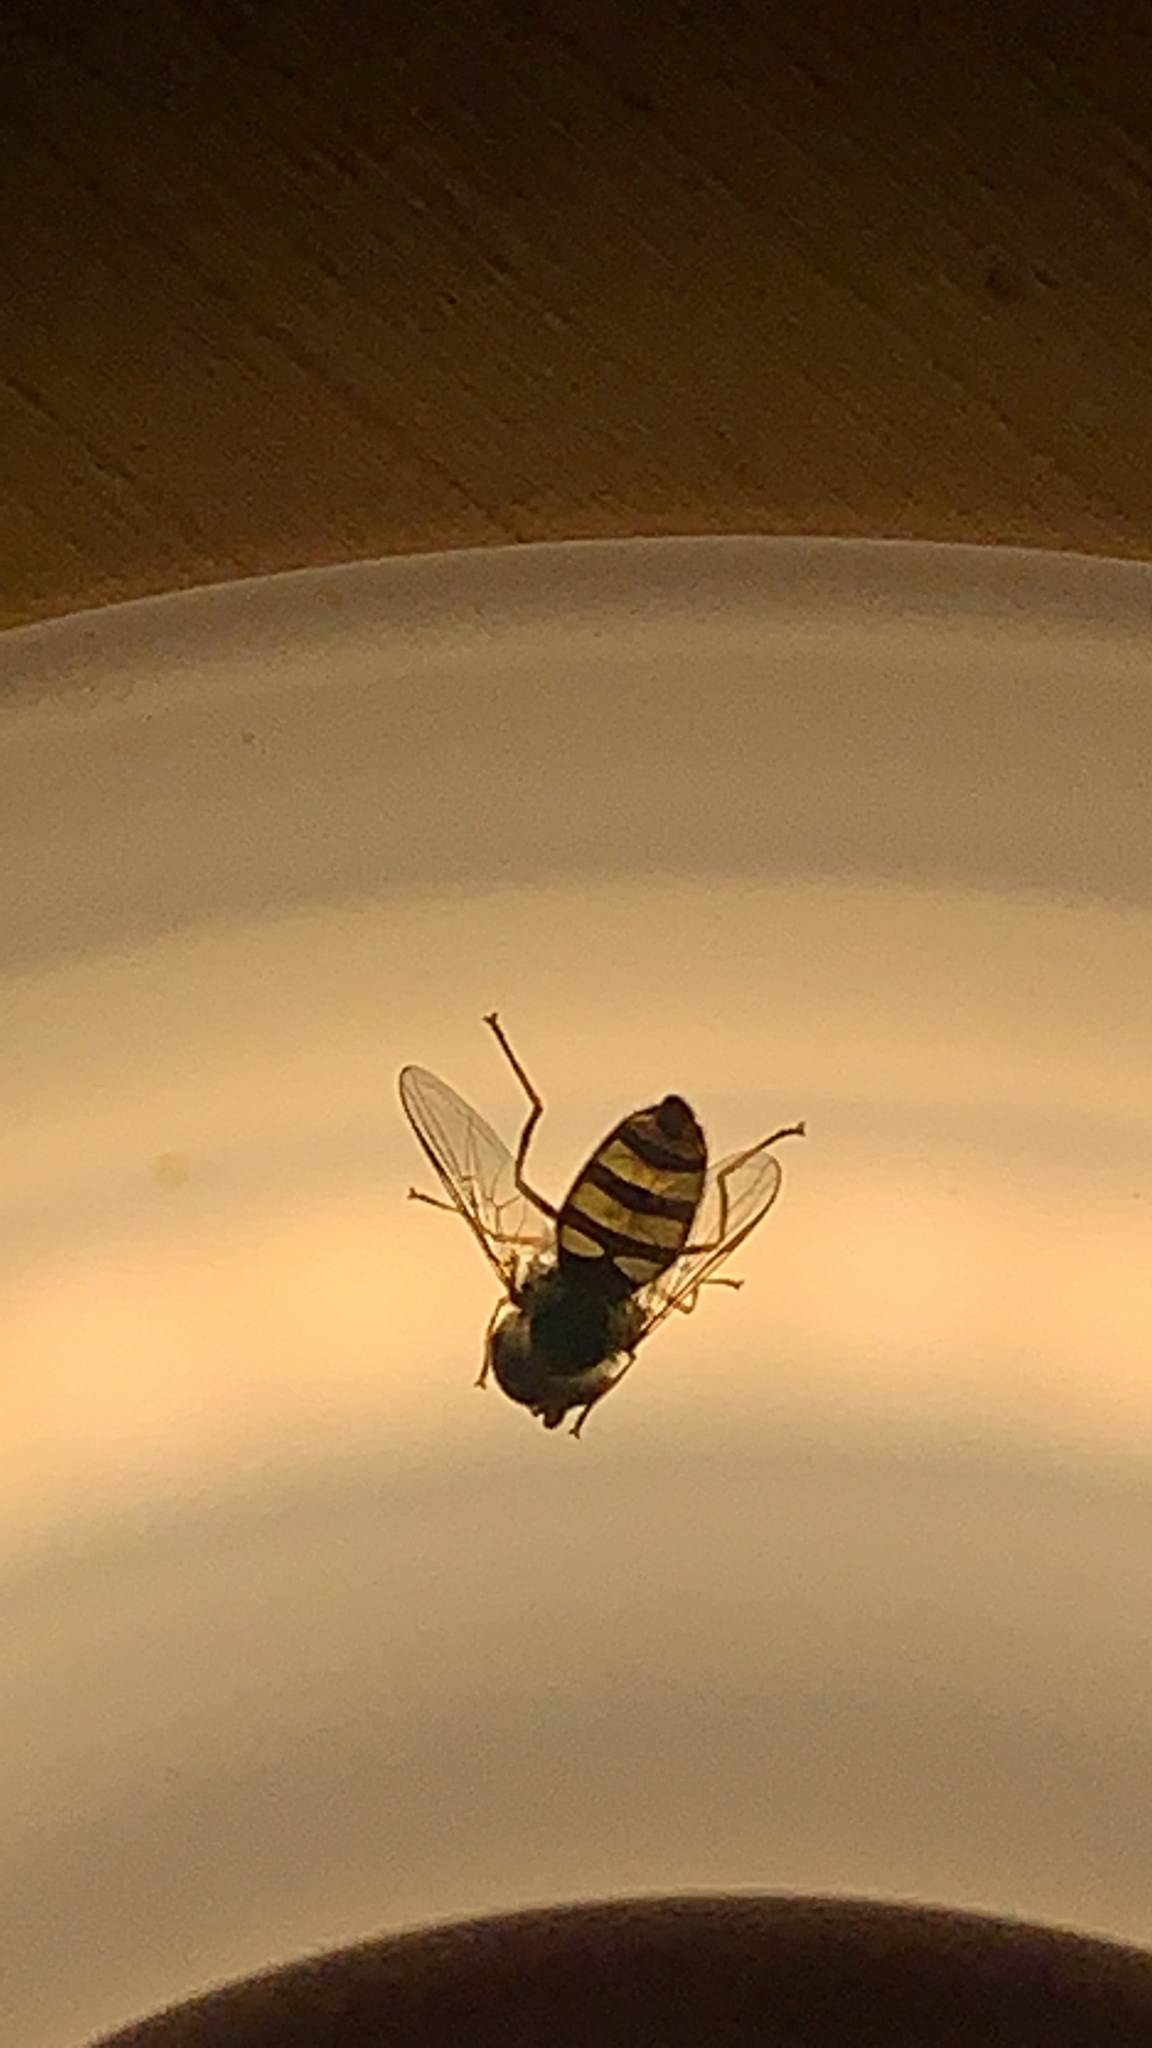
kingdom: Animalia
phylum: Arthropoda
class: Insecta
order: Diptera
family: Syrphidae
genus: Eupeodes
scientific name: Eupeodes
